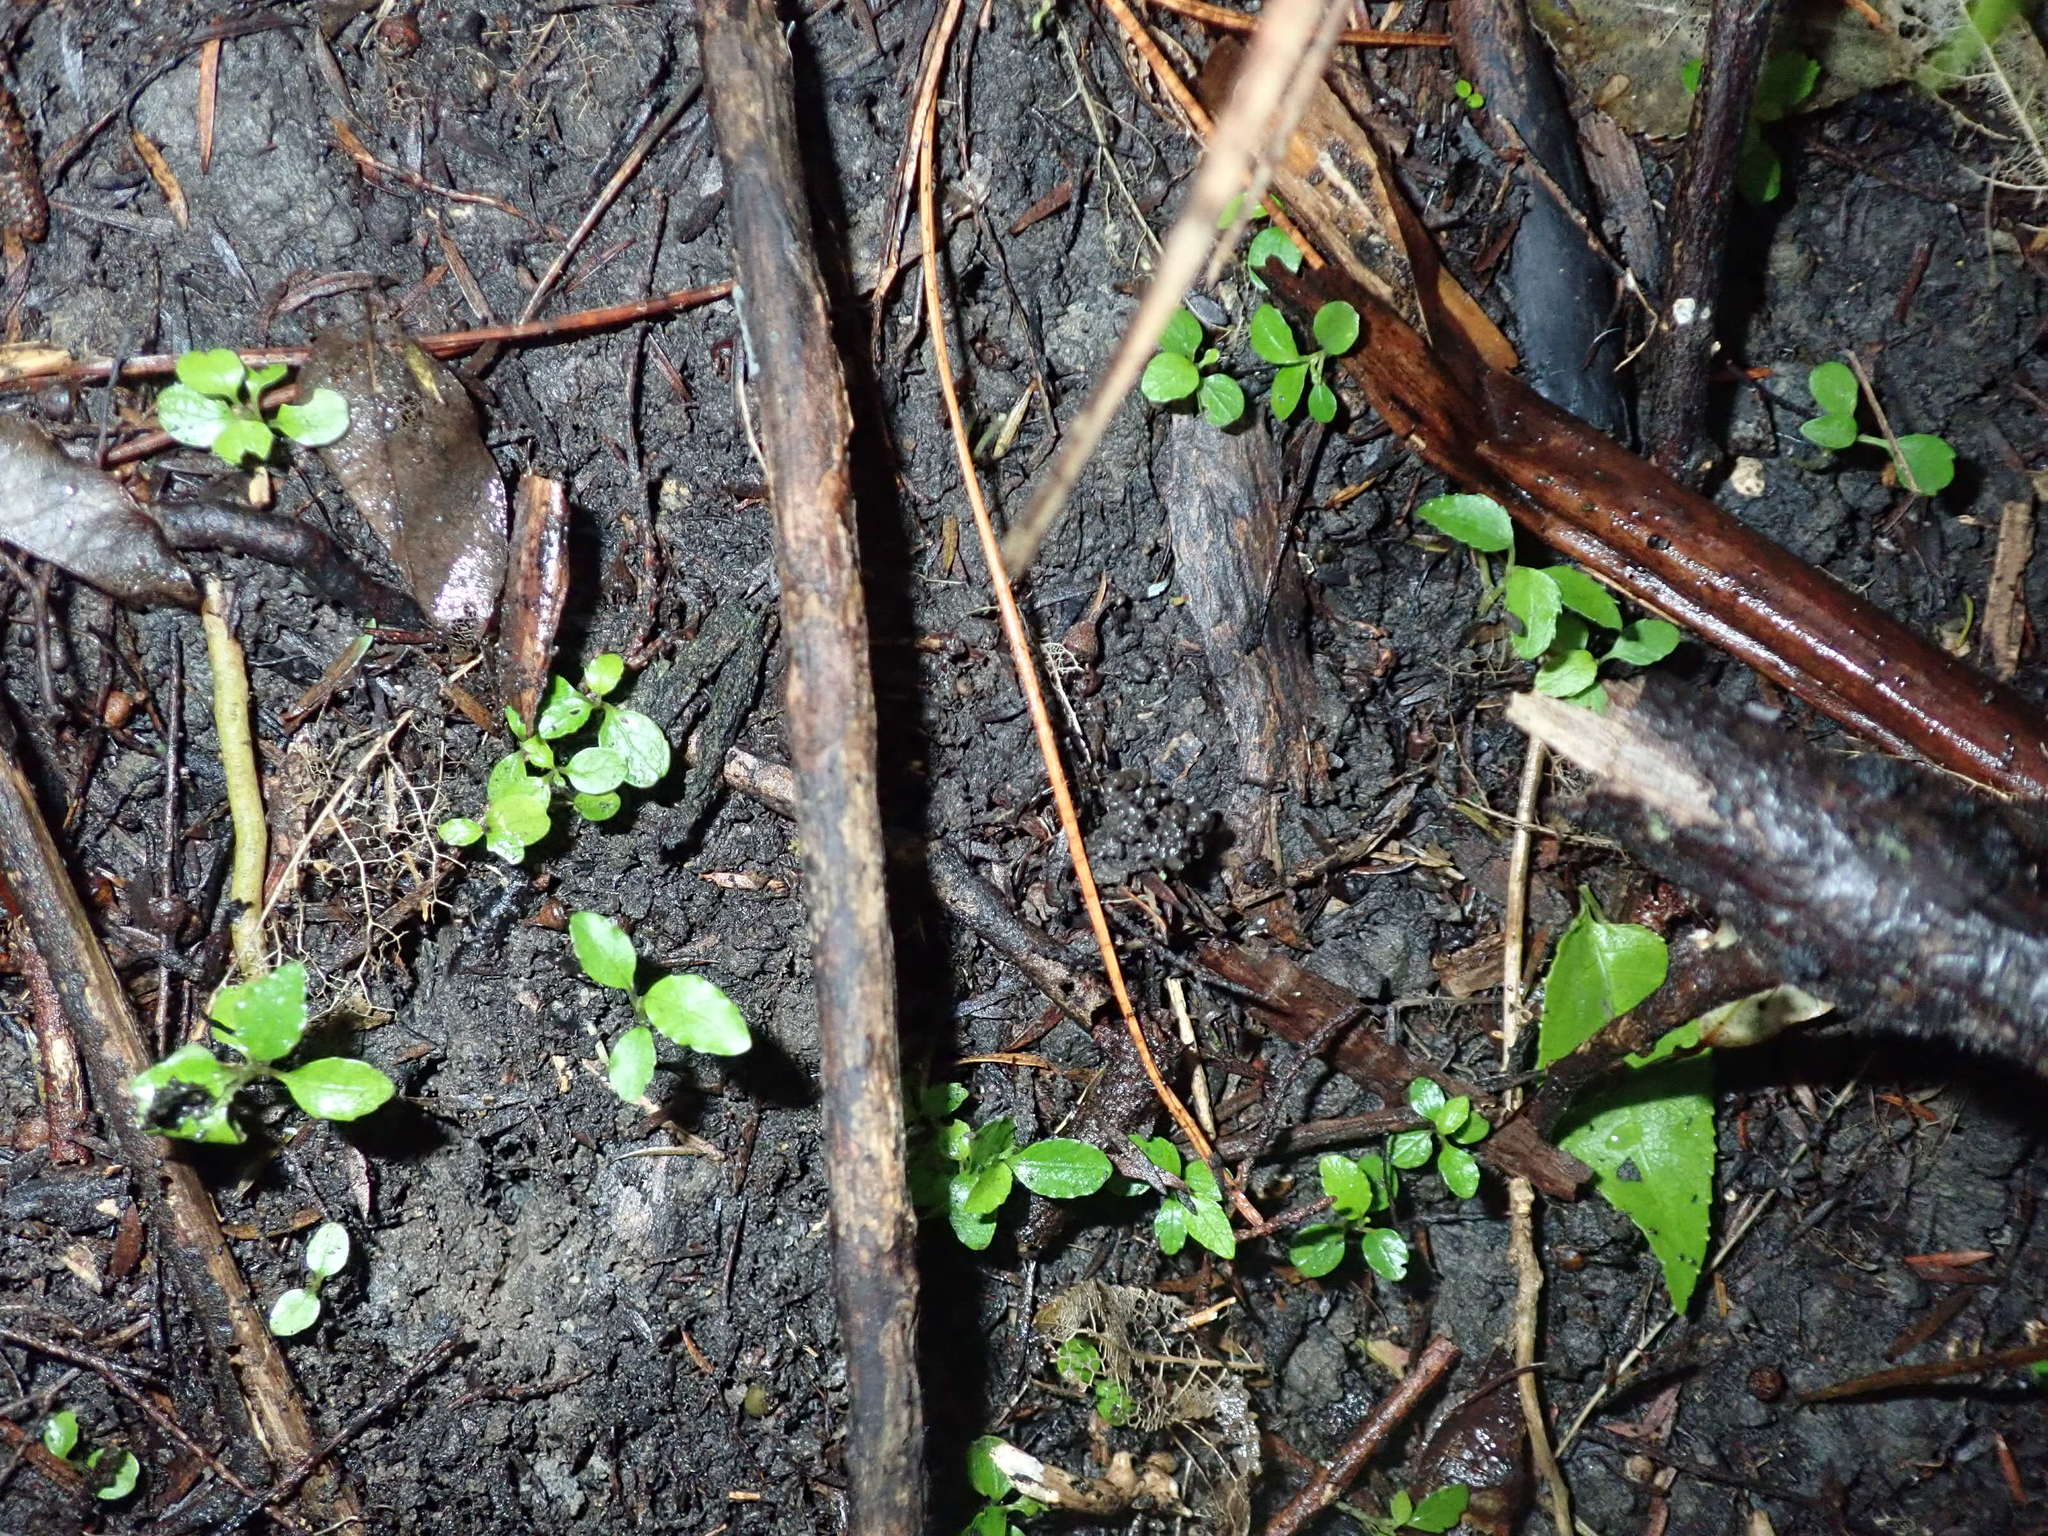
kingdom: Plantae
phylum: Tracheophyta
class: Magnoliopsida
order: Malpighiales
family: Violaceae
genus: Melicytus
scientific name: Melicytus ramiflorus
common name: Mahoe
